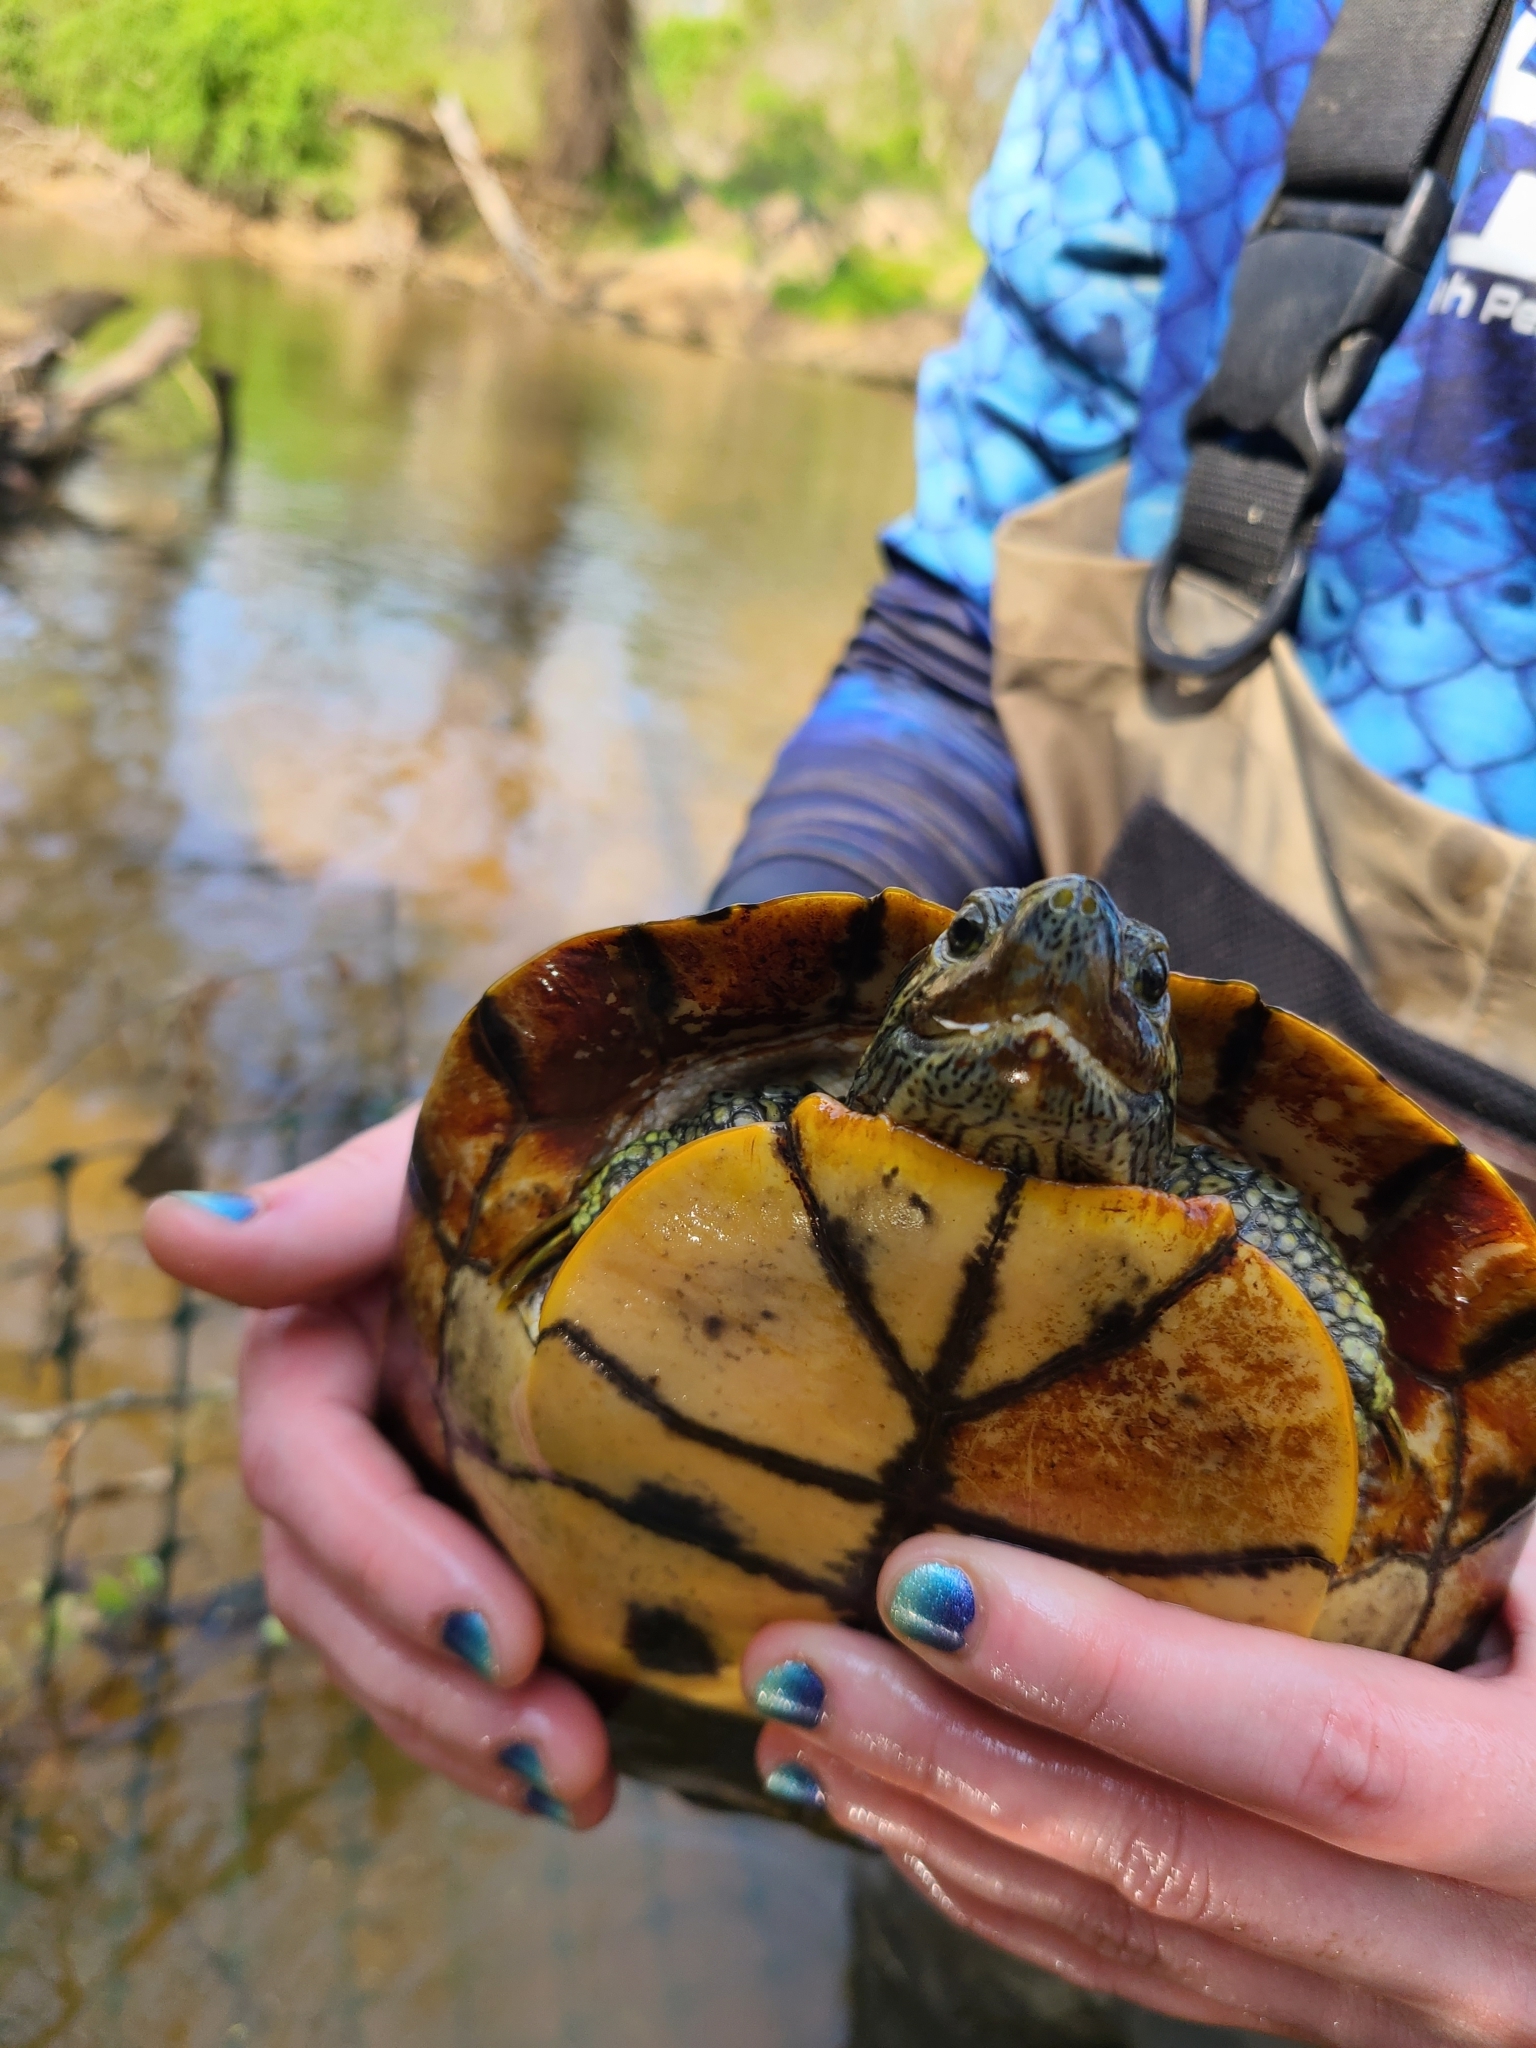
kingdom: Animalia
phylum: Chordata
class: Testudines
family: Emydidae
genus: Trachemys
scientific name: Trachemys scripta
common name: Slider
